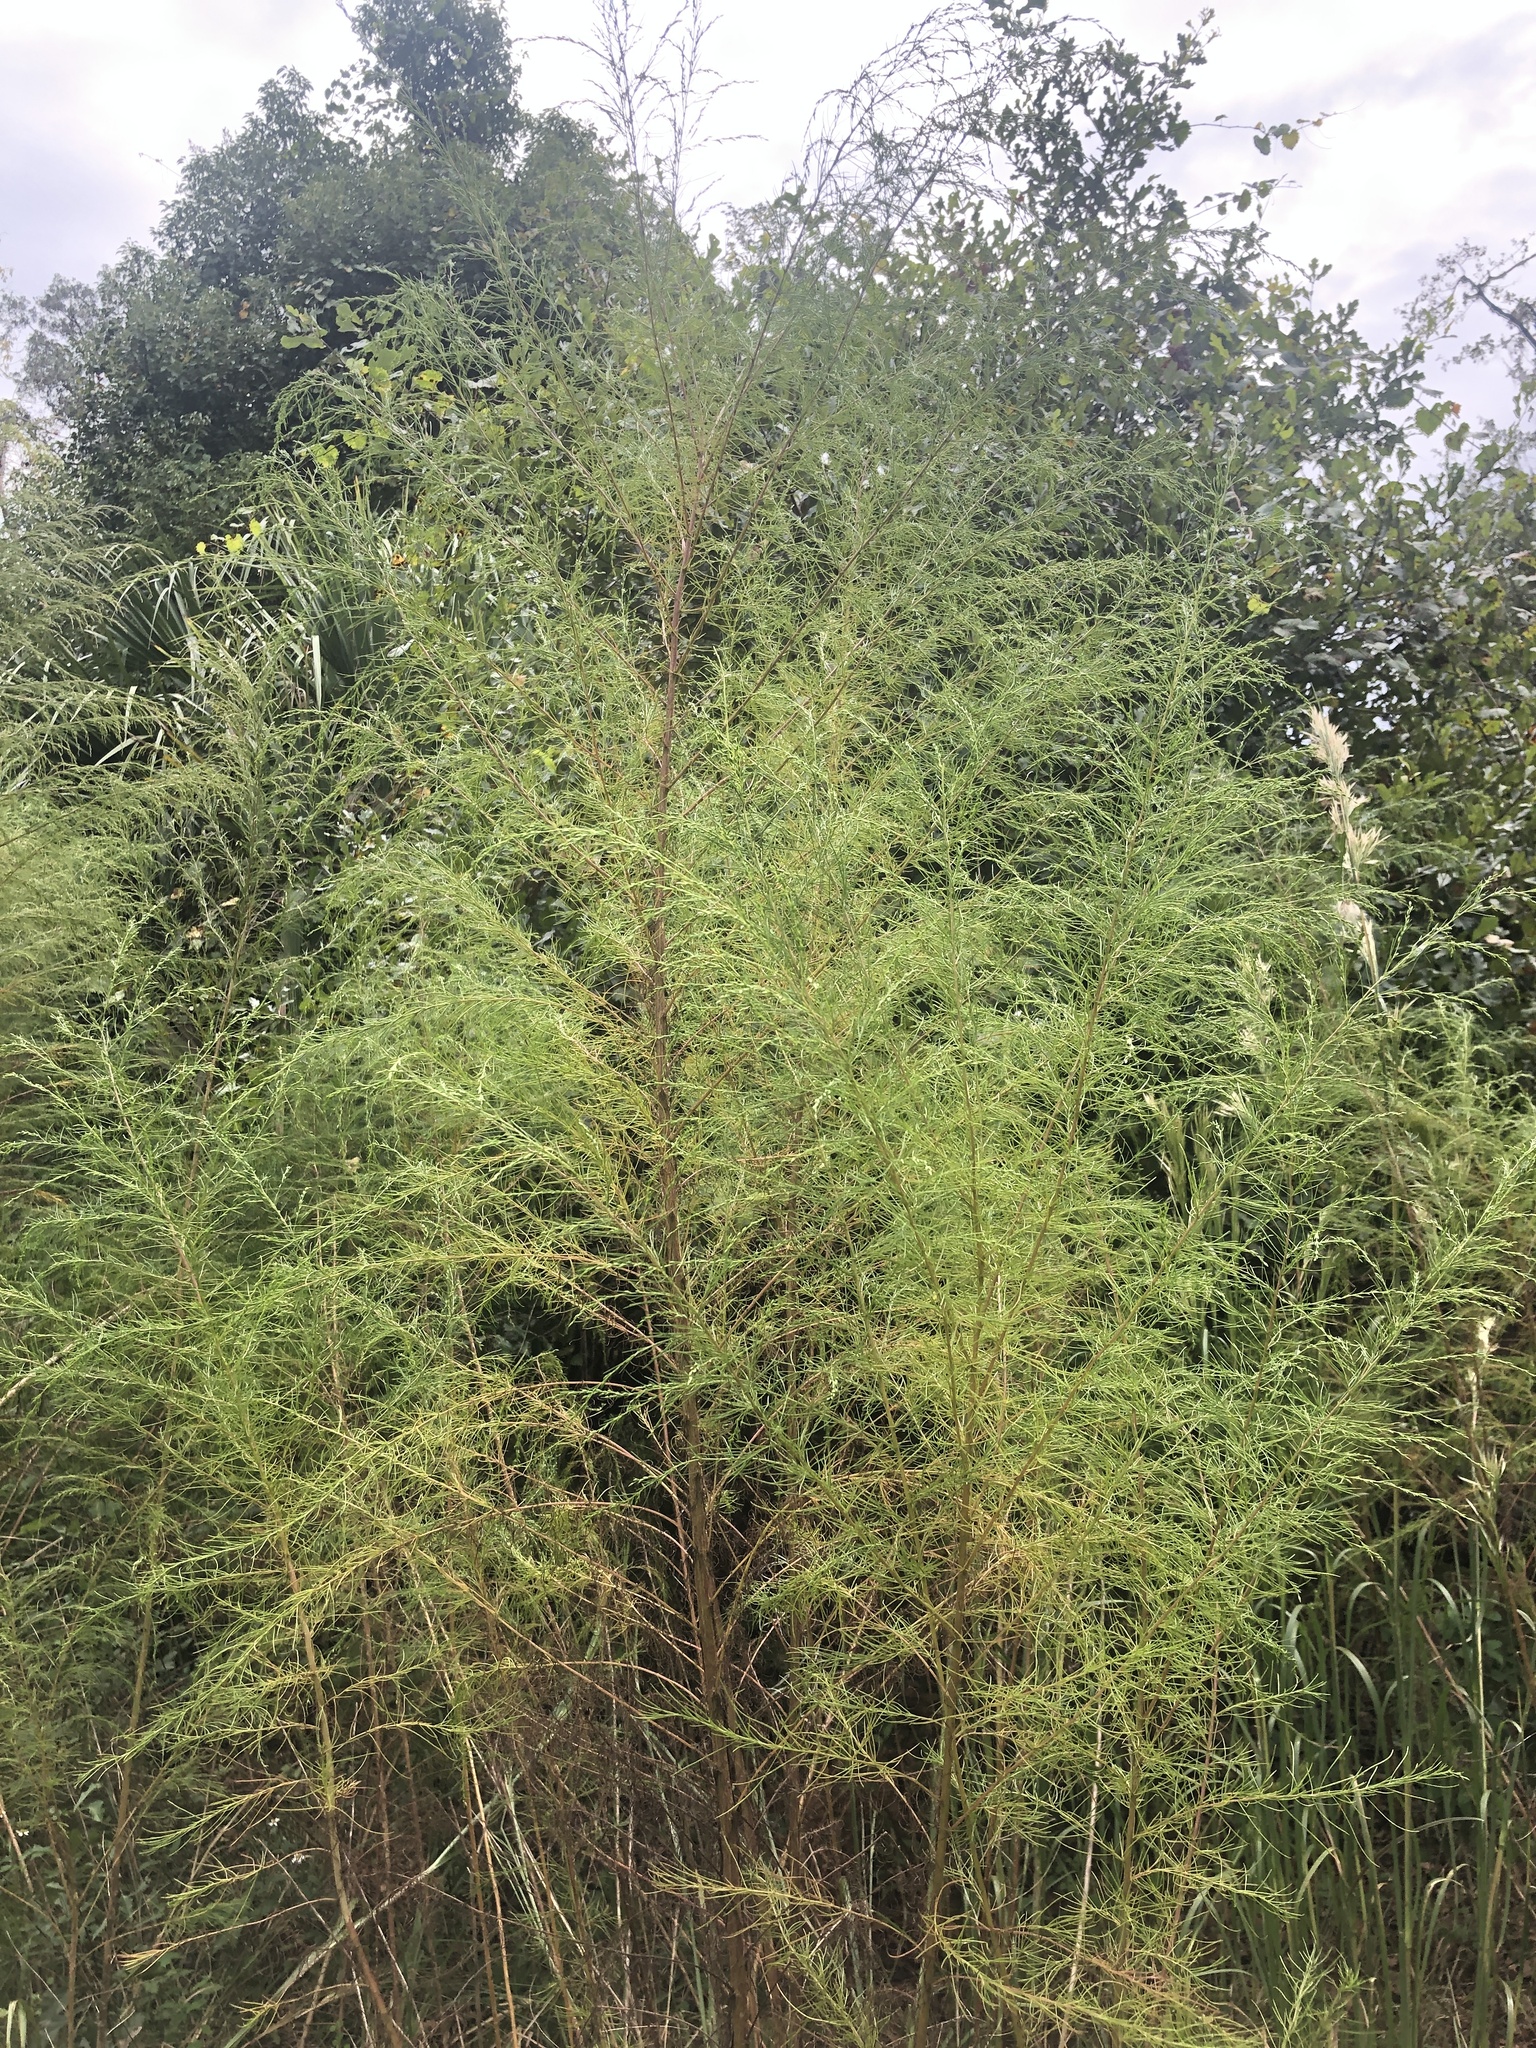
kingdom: Plantae
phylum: Tracheophyta
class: Magnoliopsida
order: Asterales
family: Asteraceae
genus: Eupatorium
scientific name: Eupatorium capillifolium
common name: Dog-fennel
